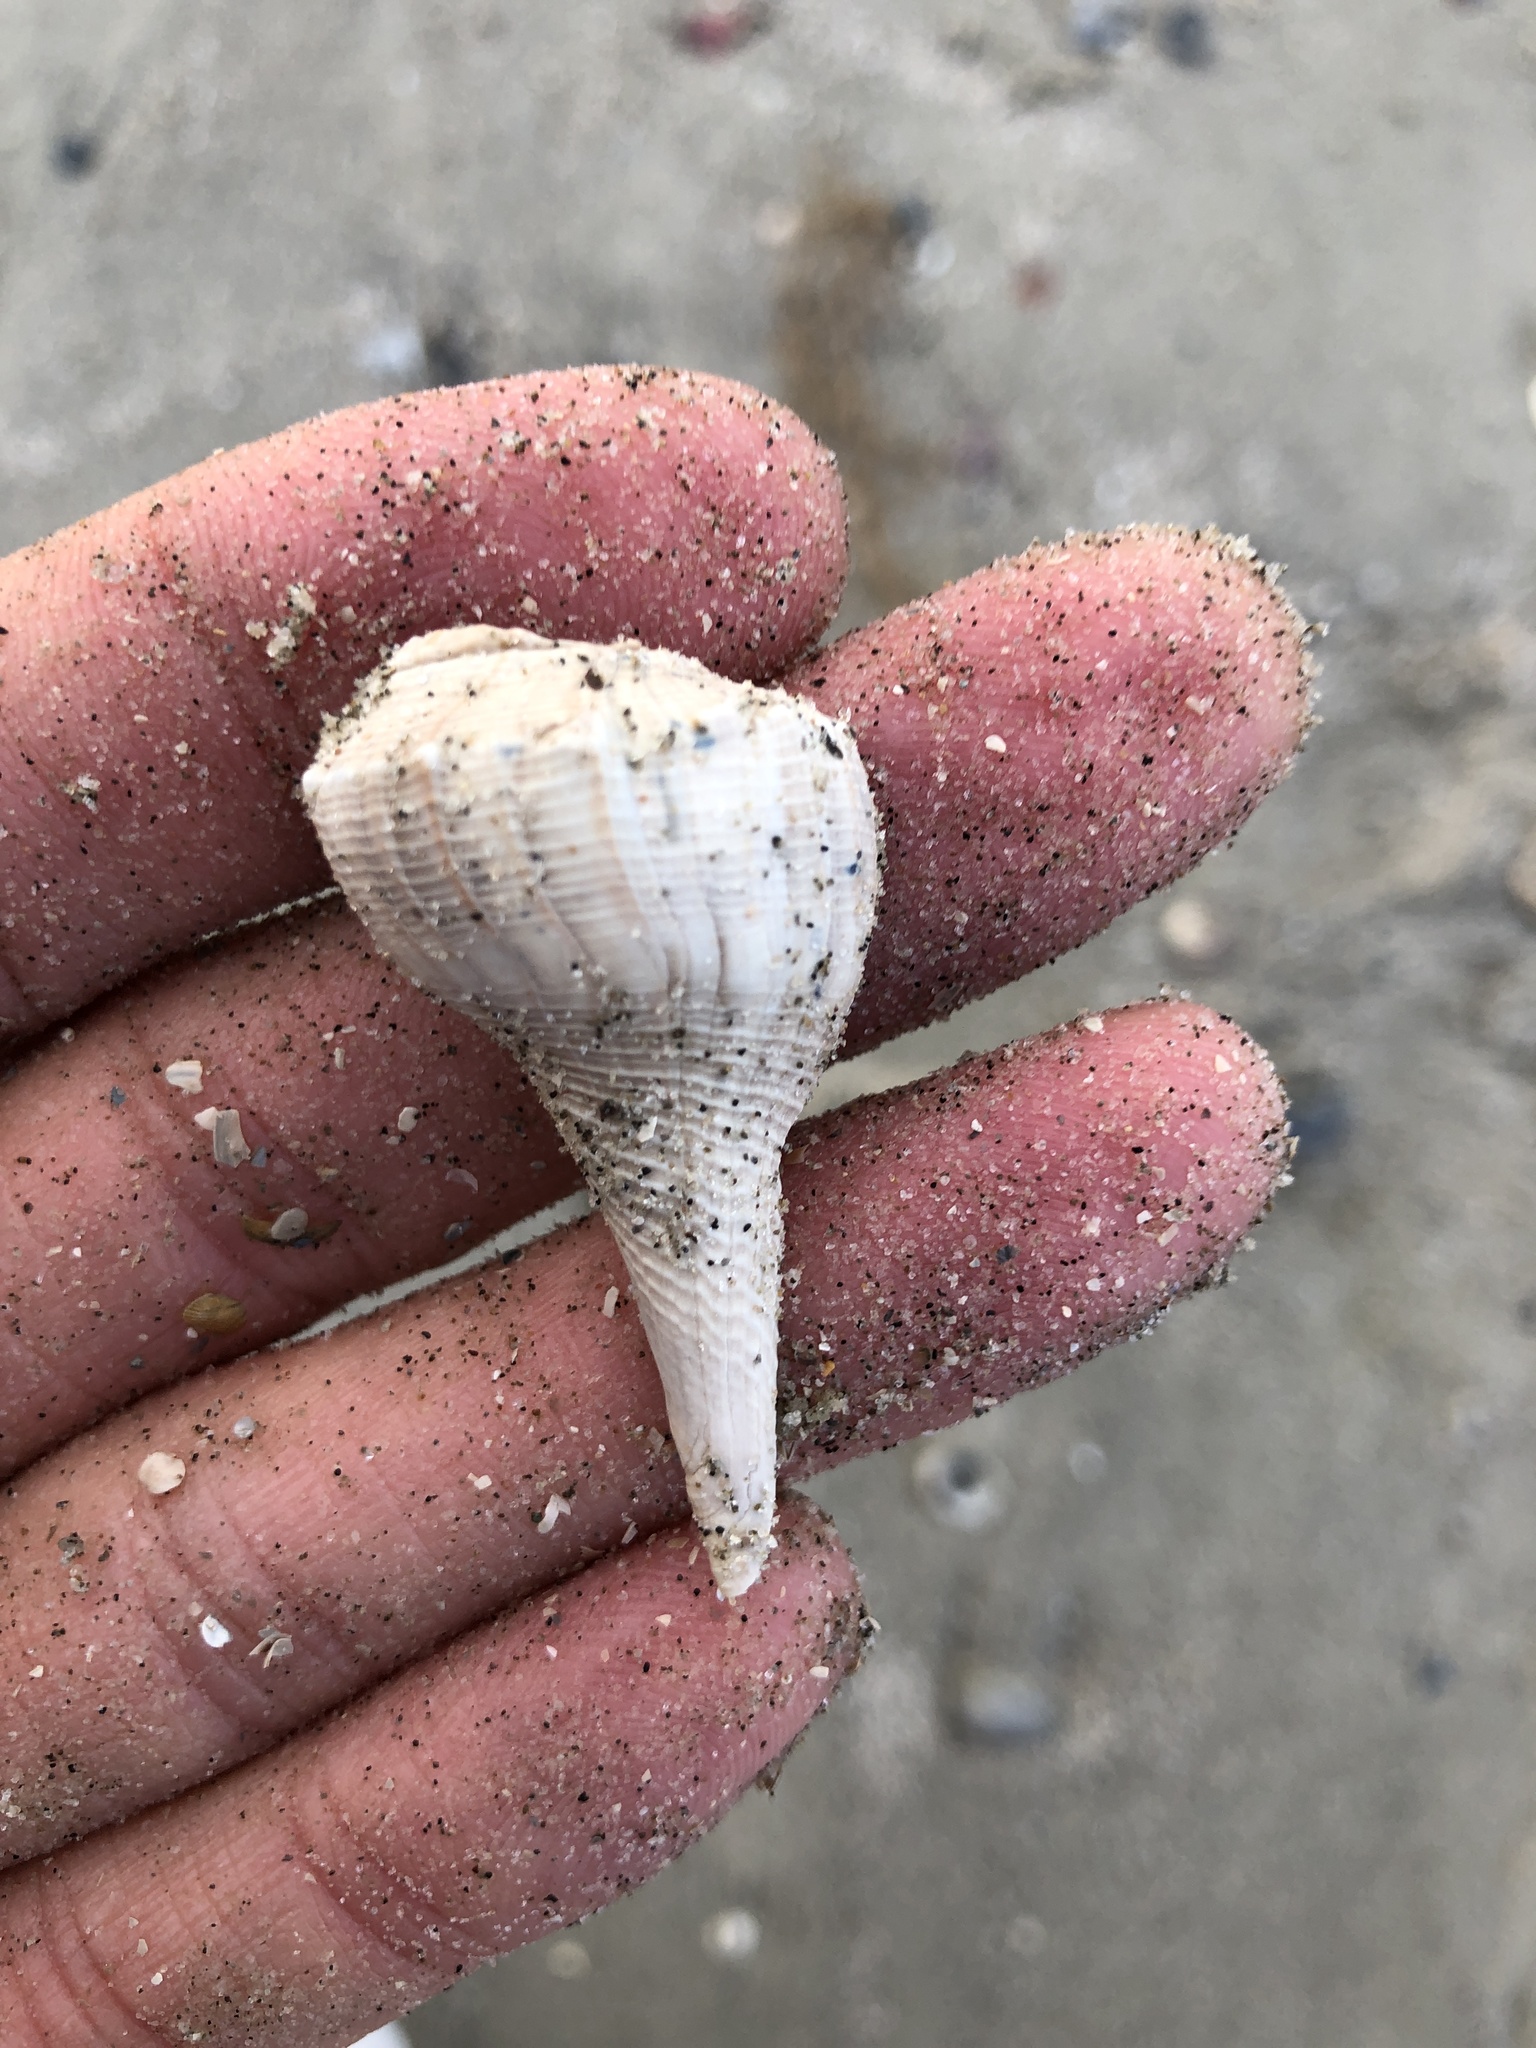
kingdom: Animalia
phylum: Mollusca
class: Gastropoda
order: Neogastropoda
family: Busyconidae
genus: Sinistrofulgur
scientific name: Sinistrofulgur pulleyi
